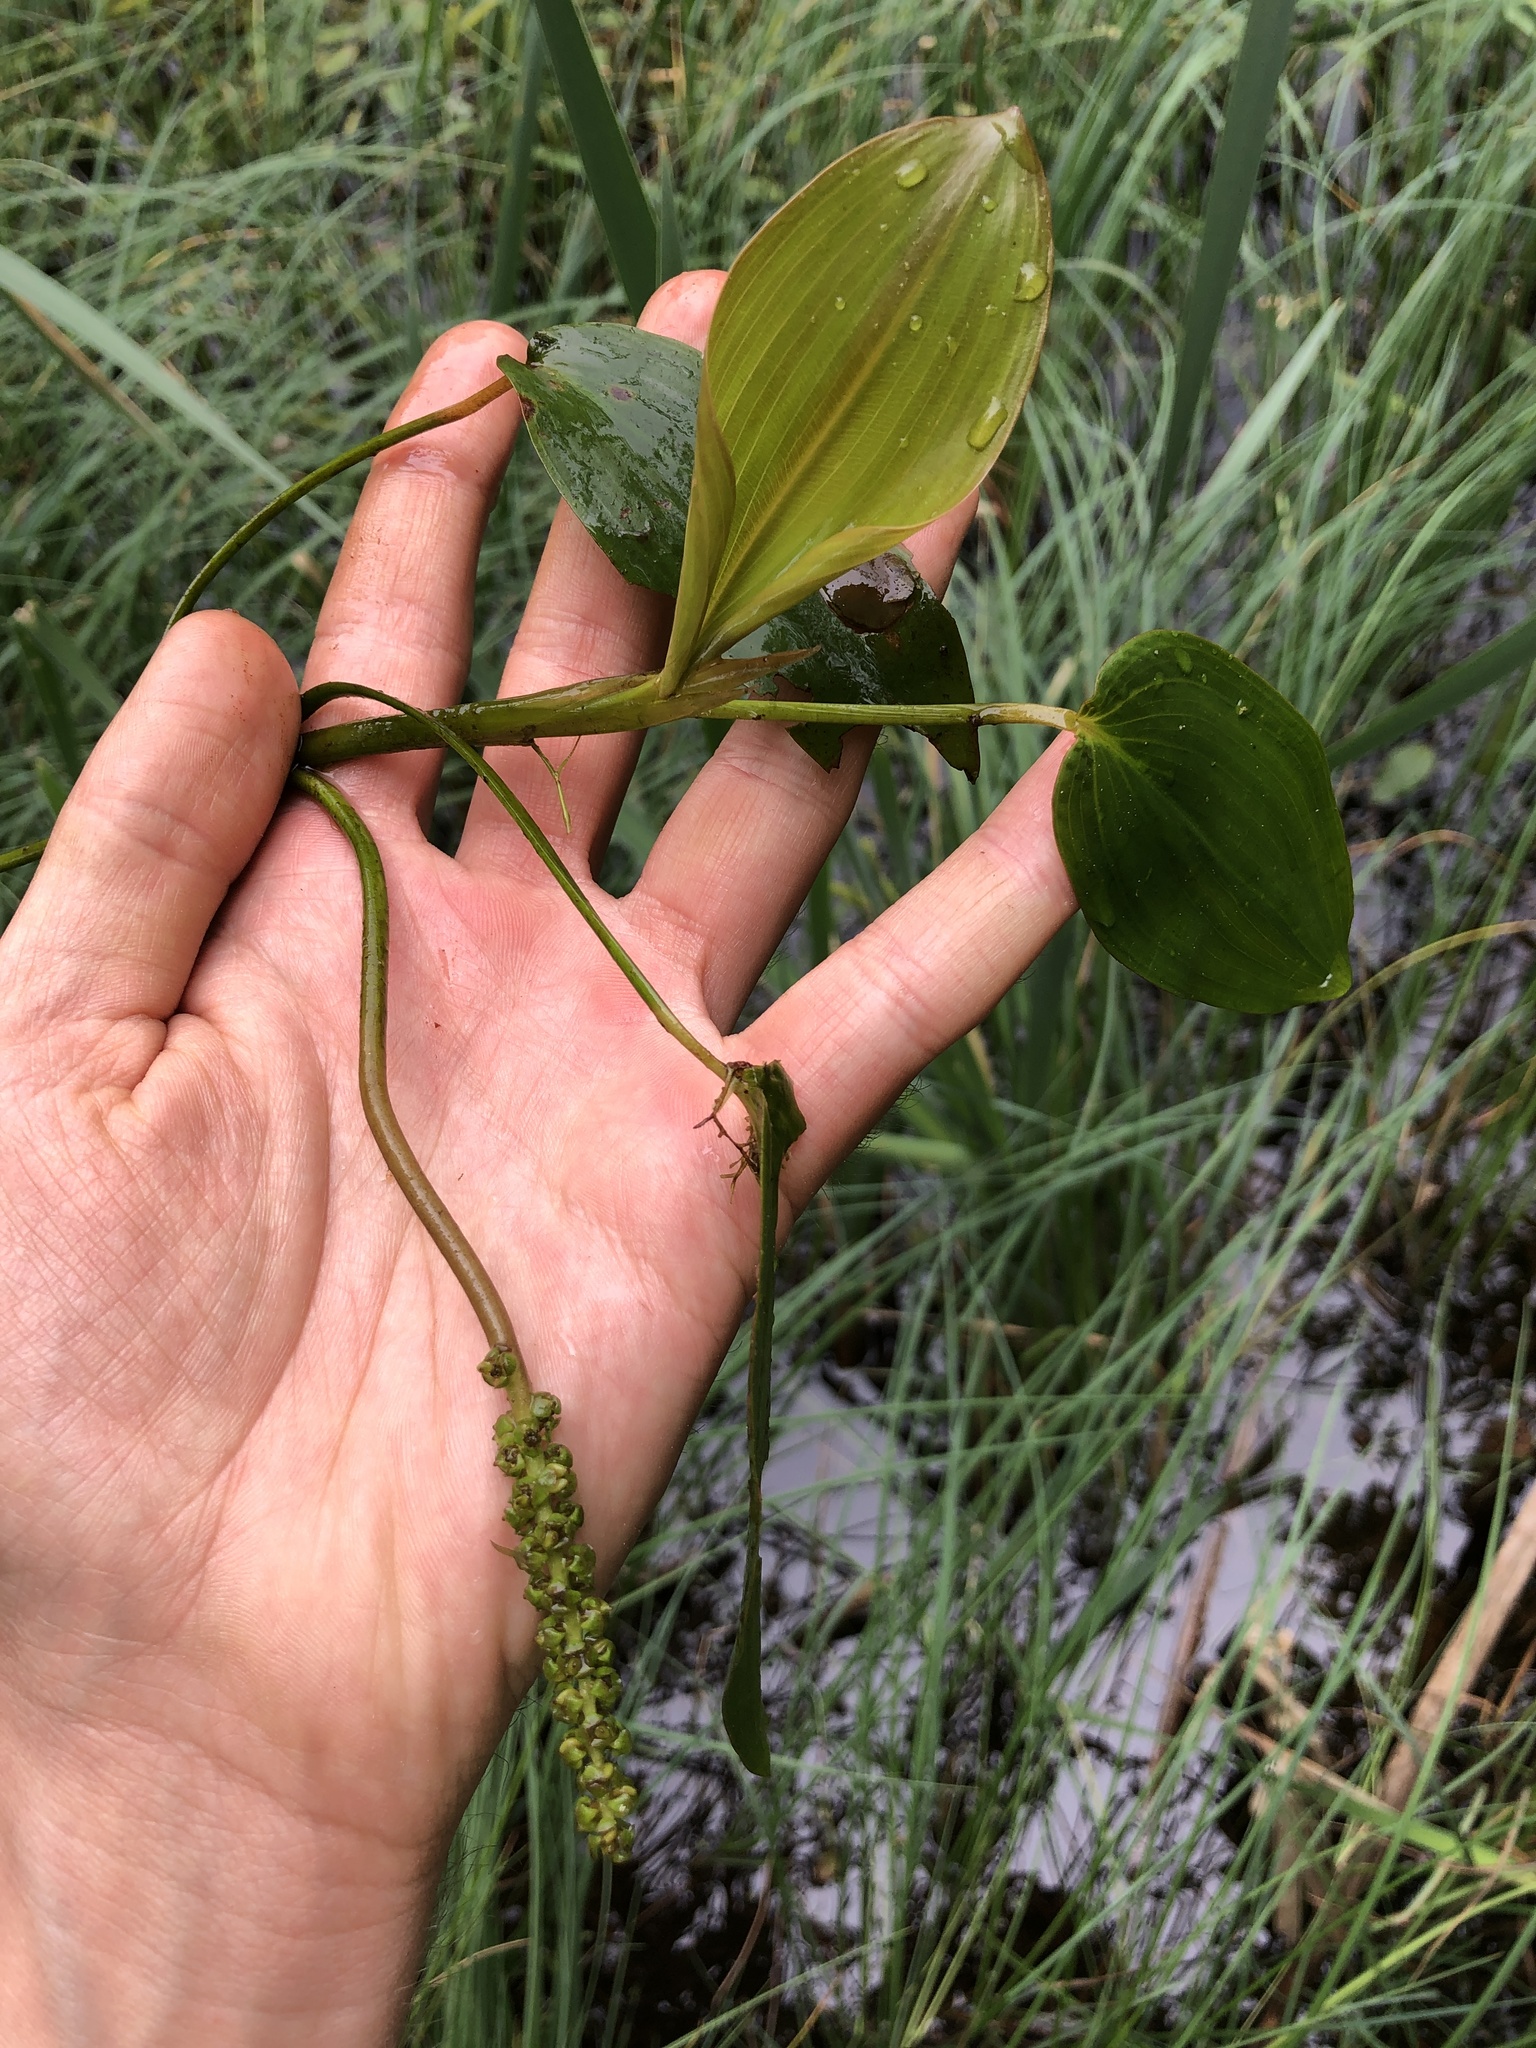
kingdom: Plantae
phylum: Tracheophyta
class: Liliopsida
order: Alismatales
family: Potamogetonaceae
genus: Potamogeton
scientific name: Potamogeton natans
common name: Broad-leaved pondweed
